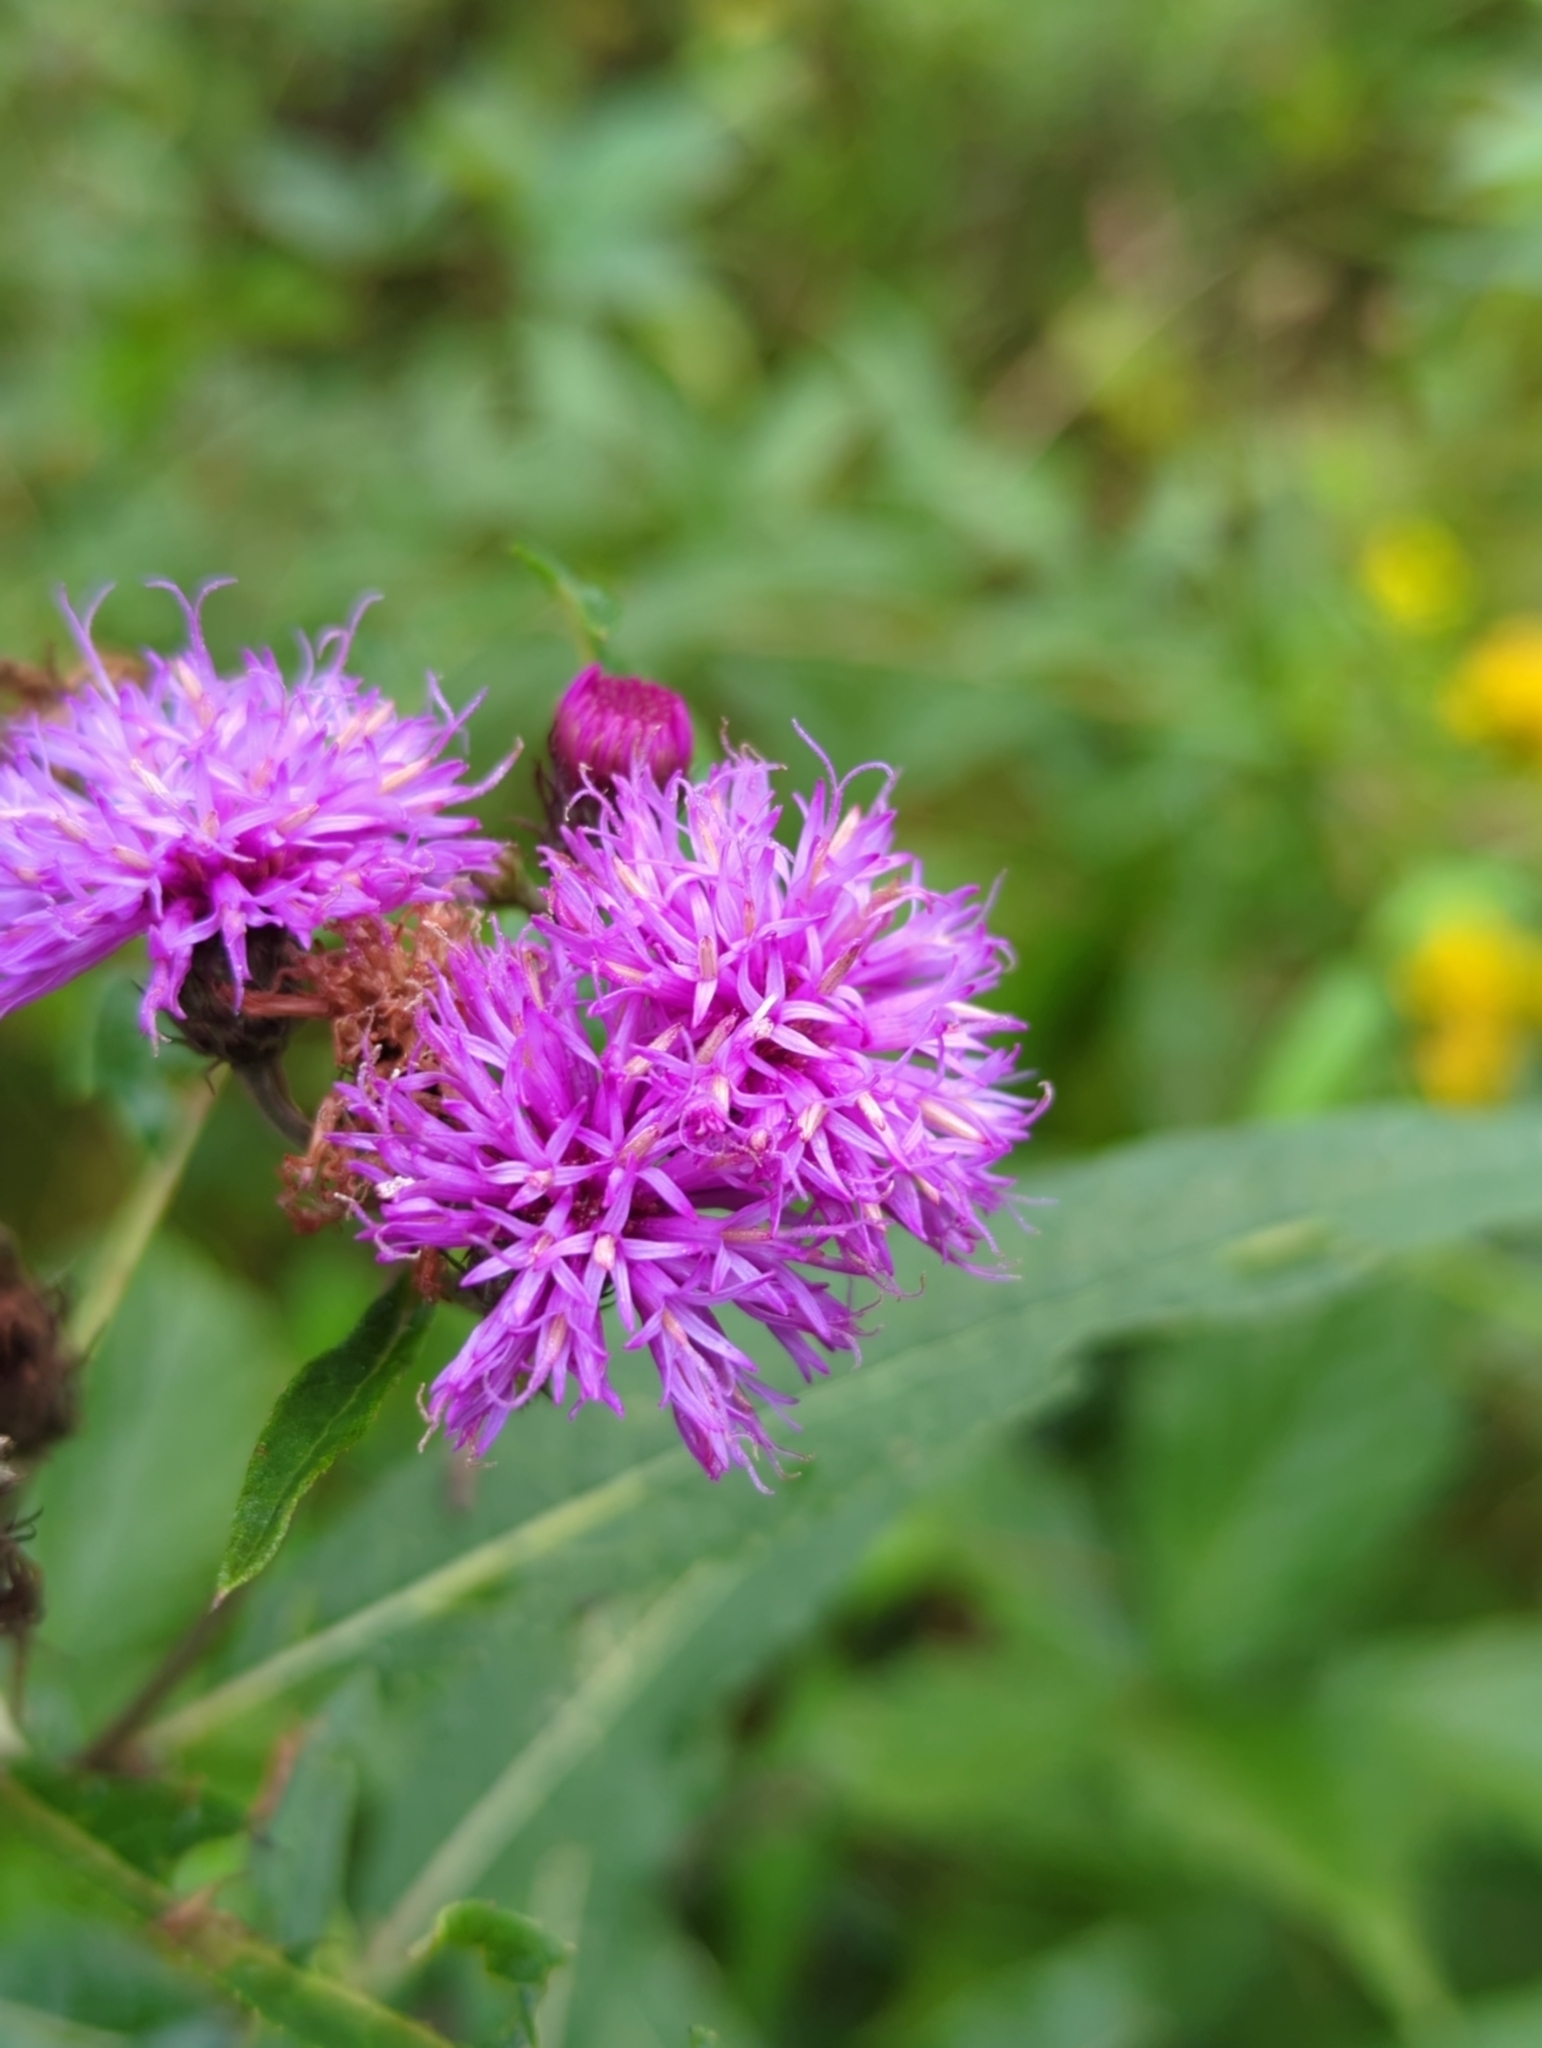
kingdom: Plantae
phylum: Tracheophyta
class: Magnoliopsida
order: Asterales
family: Asteraceae
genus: Vernonia
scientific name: Vernonia noveboracensis
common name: New york ironweed
